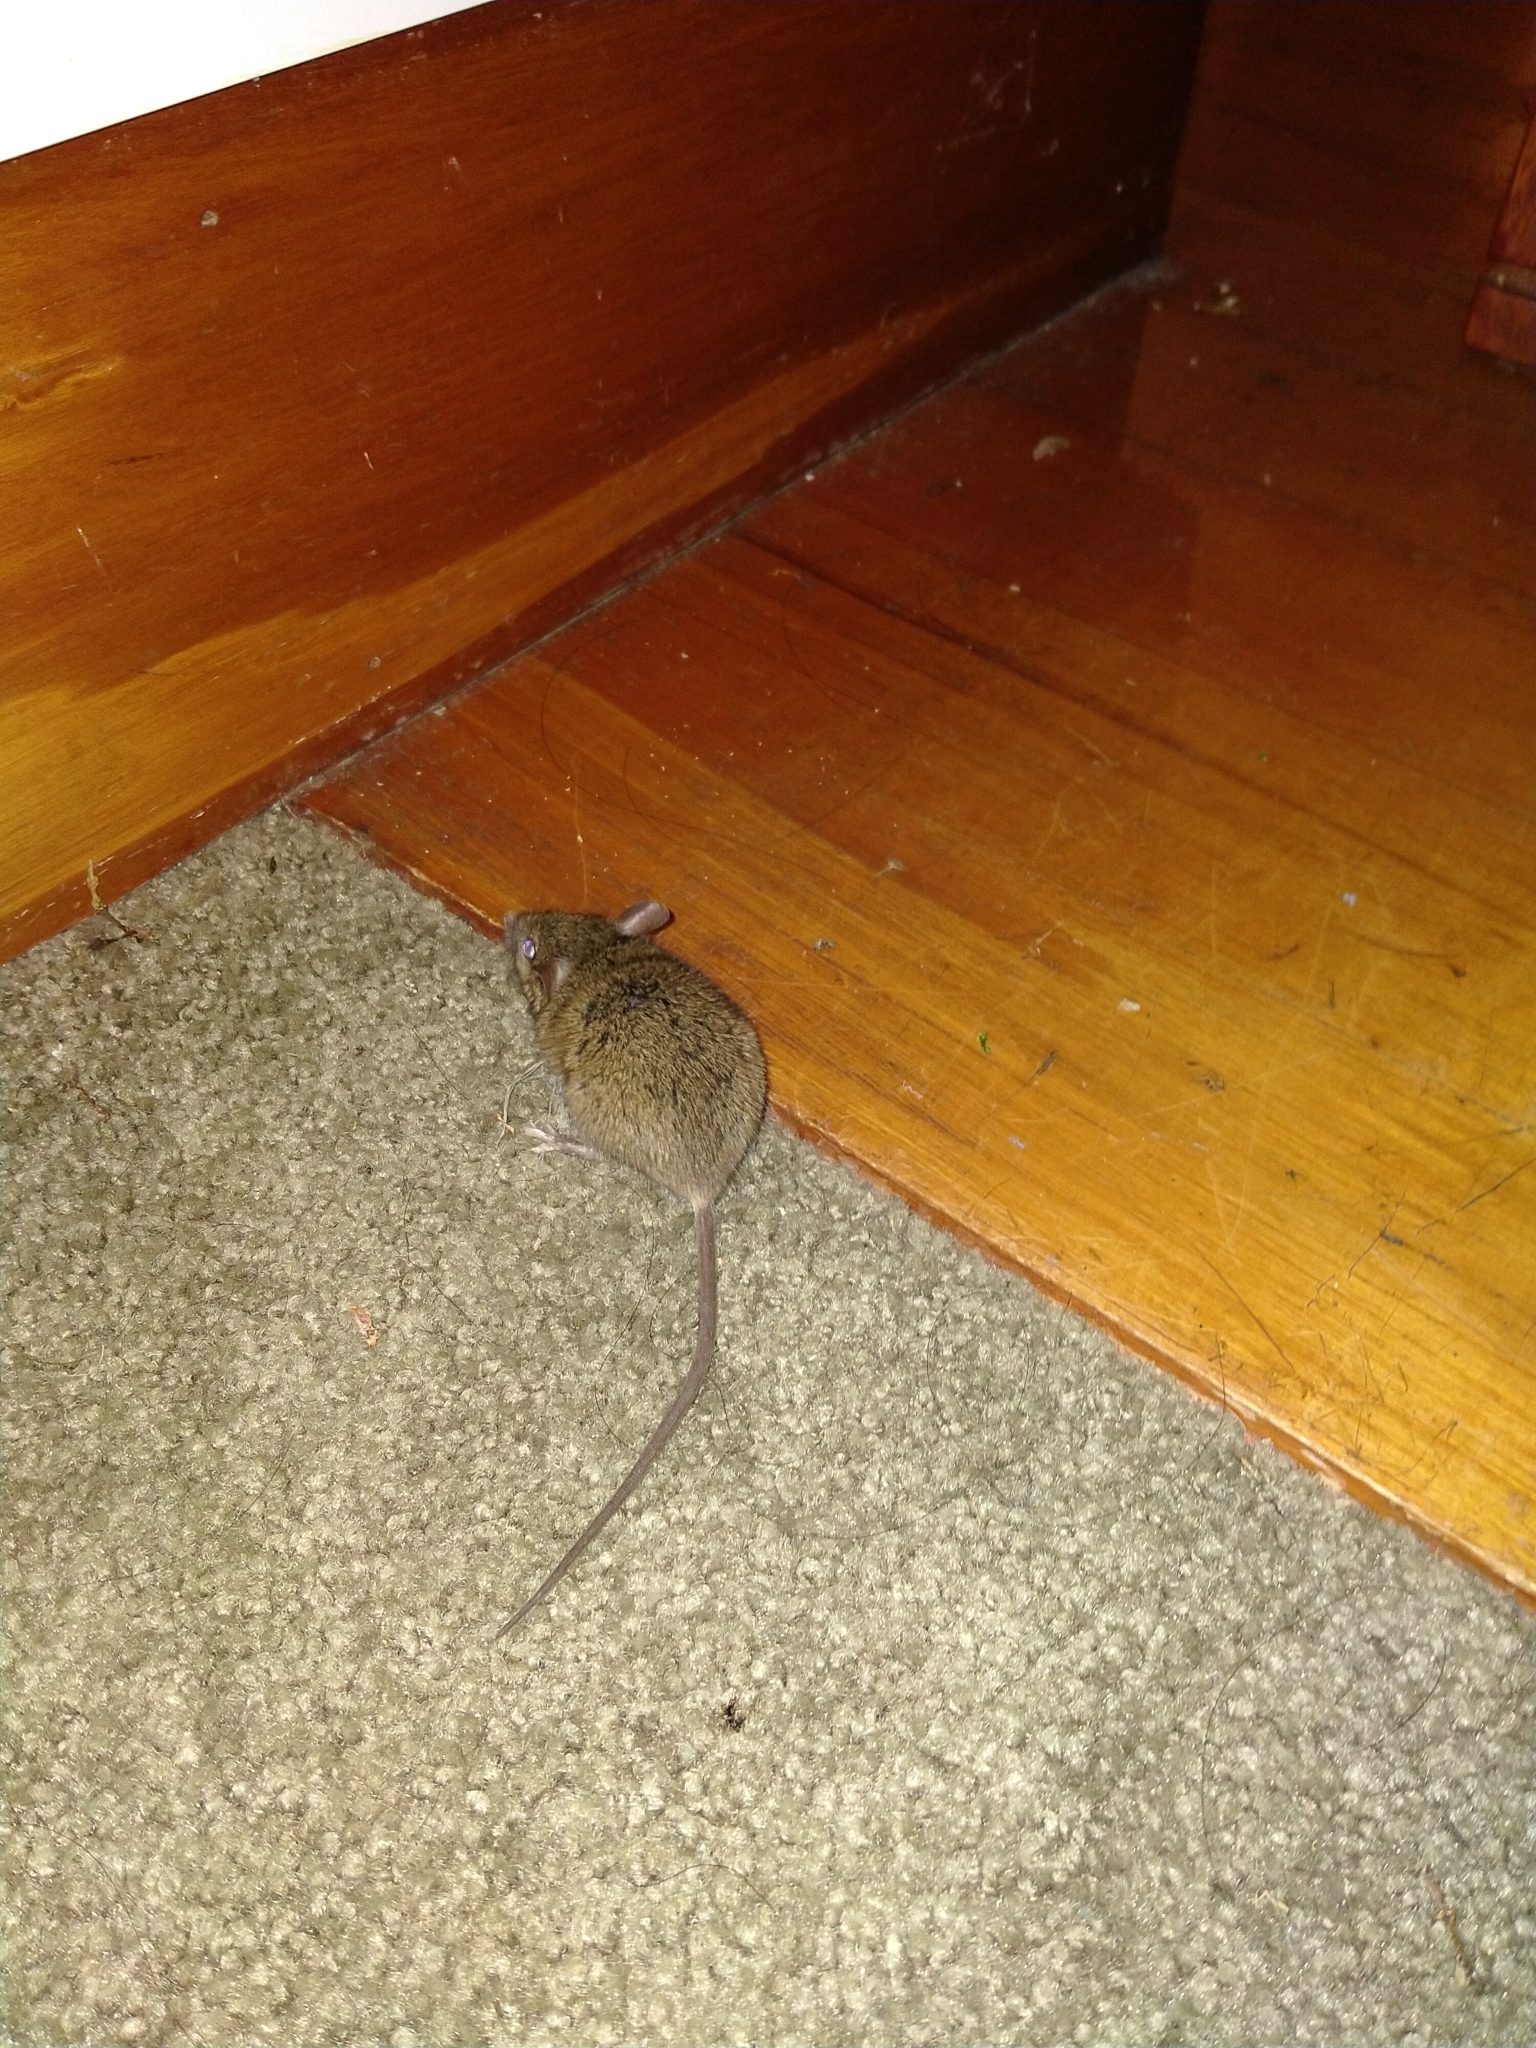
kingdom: Animalia
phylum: Chordata
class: Mammalia
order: Rodentia
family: Muridae
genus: Mus
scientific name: Mus musculus
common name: House mouse
